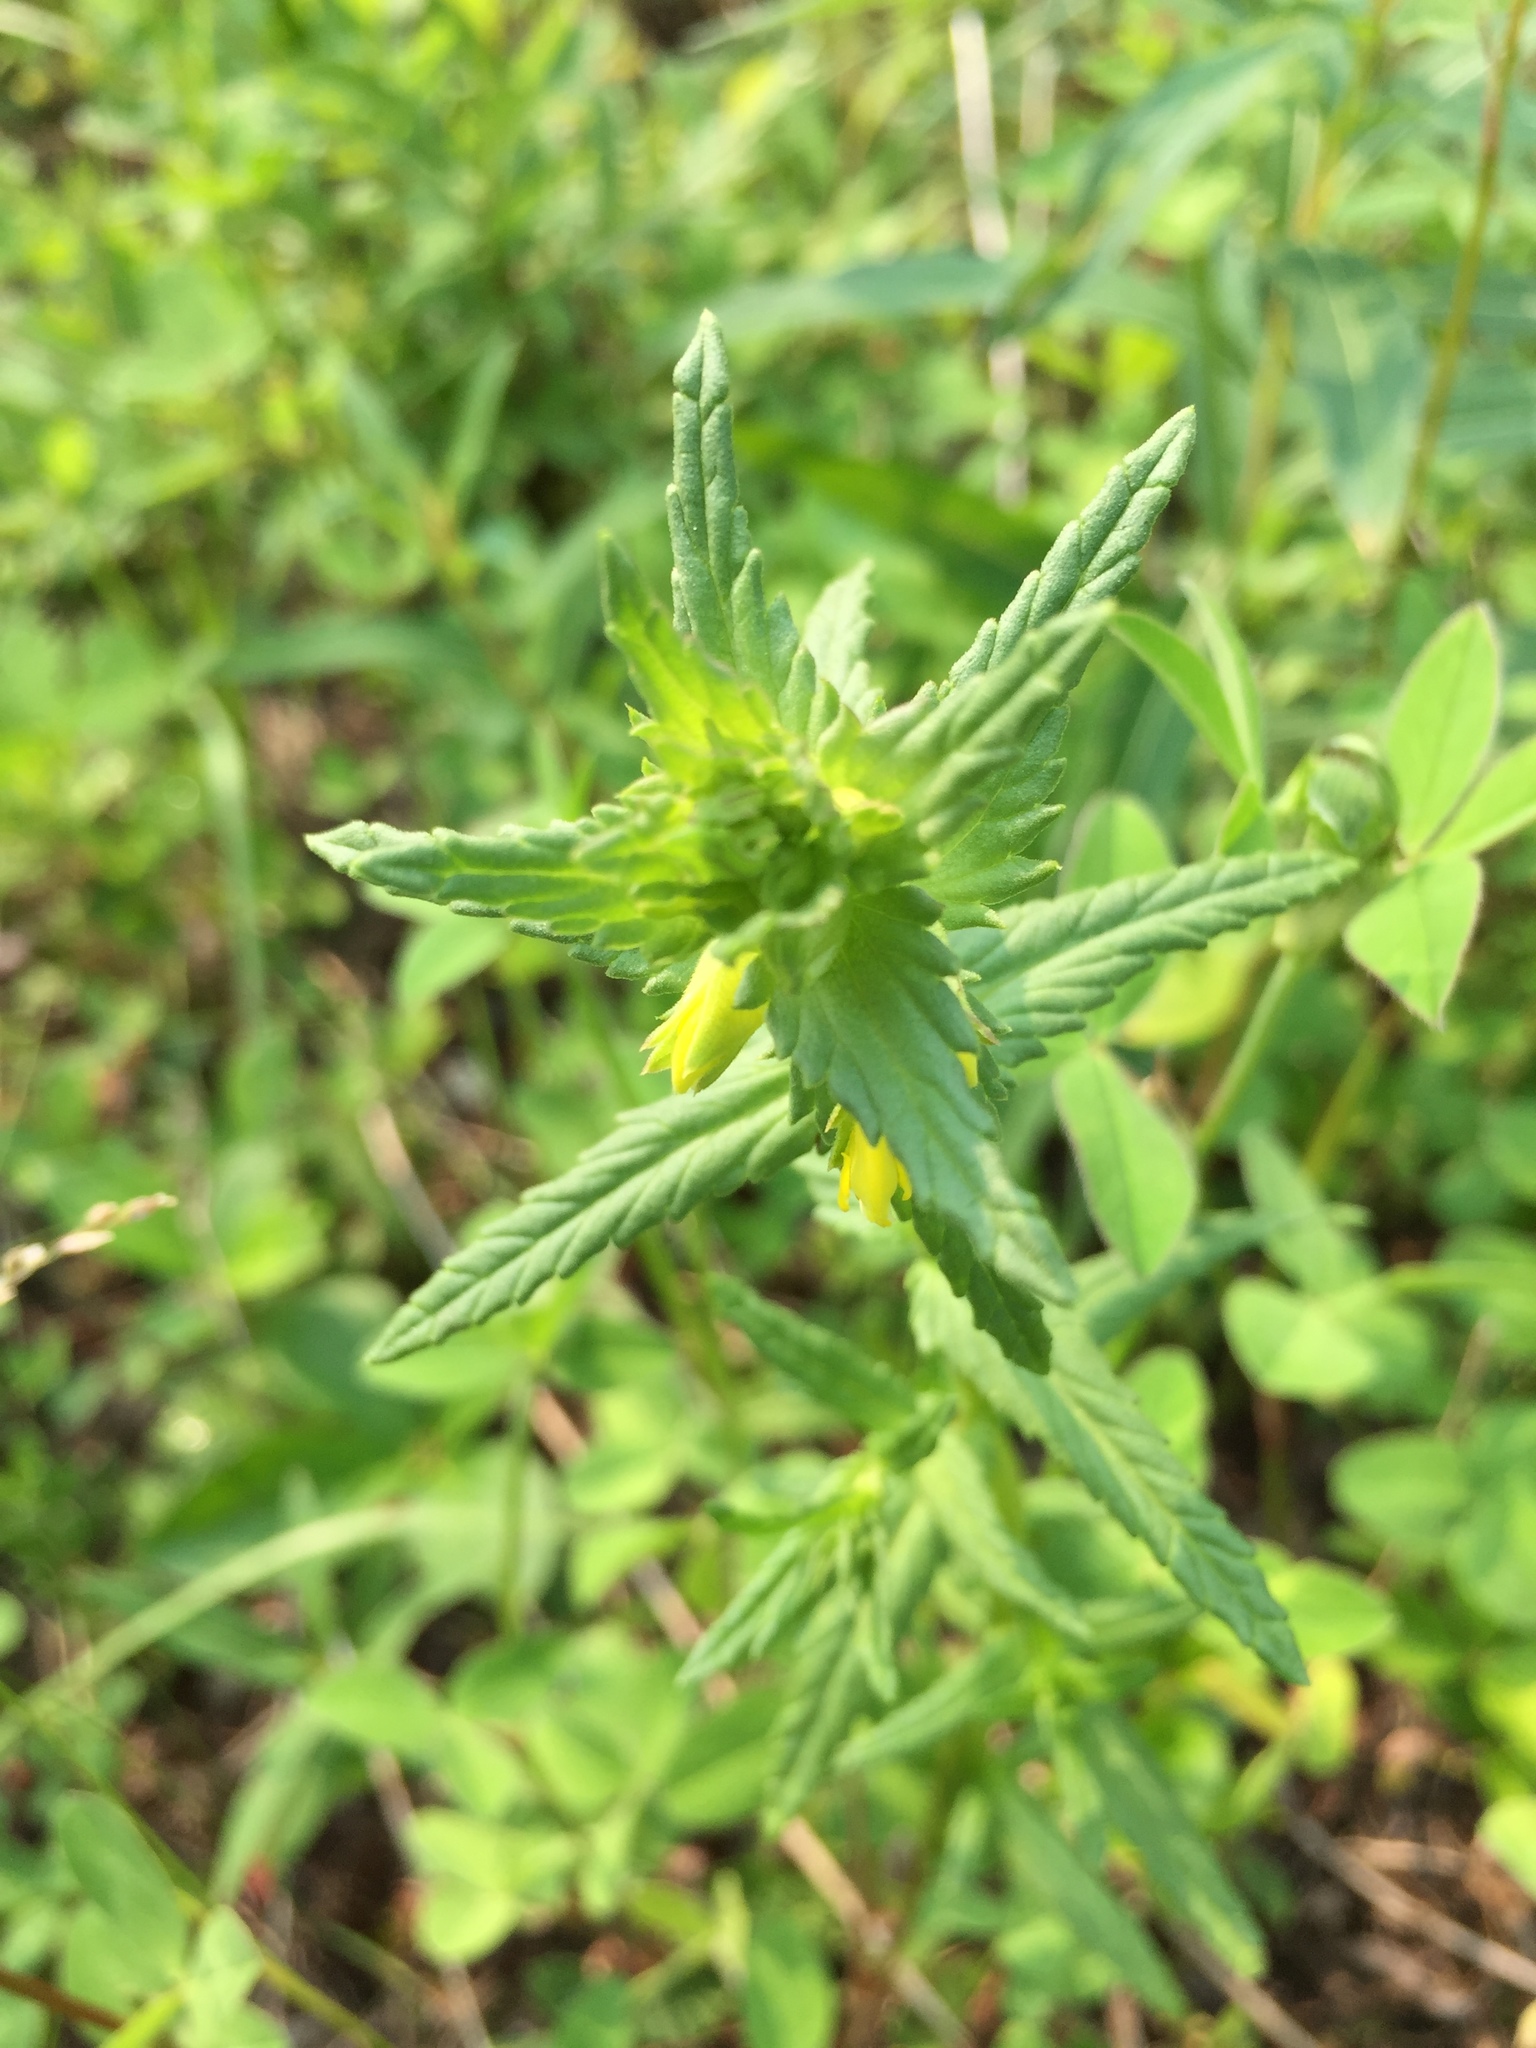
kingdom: Plantae
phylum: Tracheophyta
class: Magnoliopsida
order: Lamiales
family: Orobanchaceae
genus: Rhinanthus
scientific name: Rhinanthus minor
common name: Yellow-rattle
